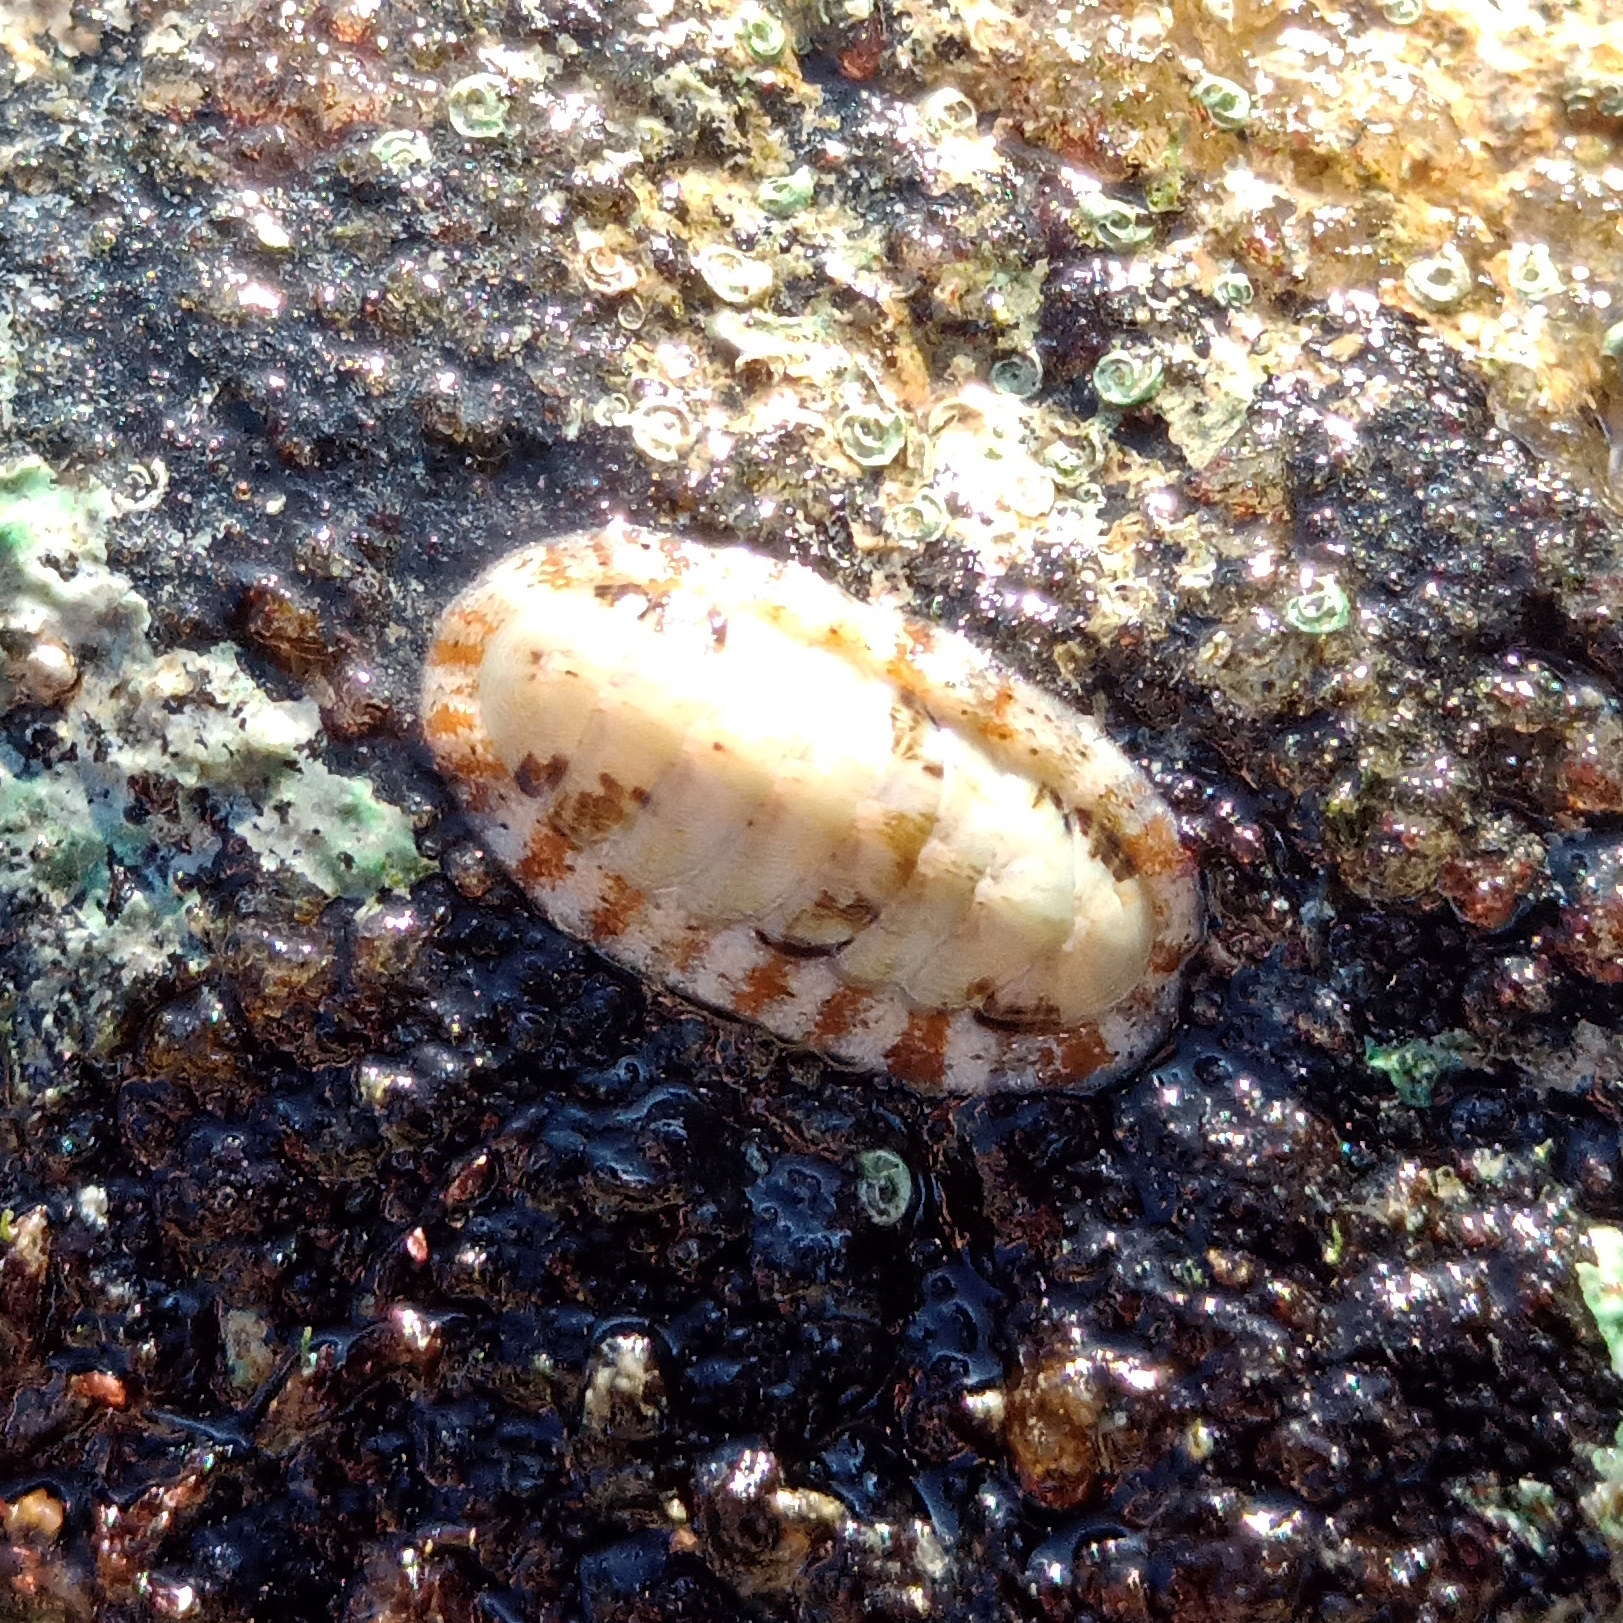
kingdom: Animalia
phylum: Mollusca
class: Polyplacophora
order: Chitonida
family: Ischnochitonidae
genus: Ischnochiton
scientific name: Ischnochiton striolatus
